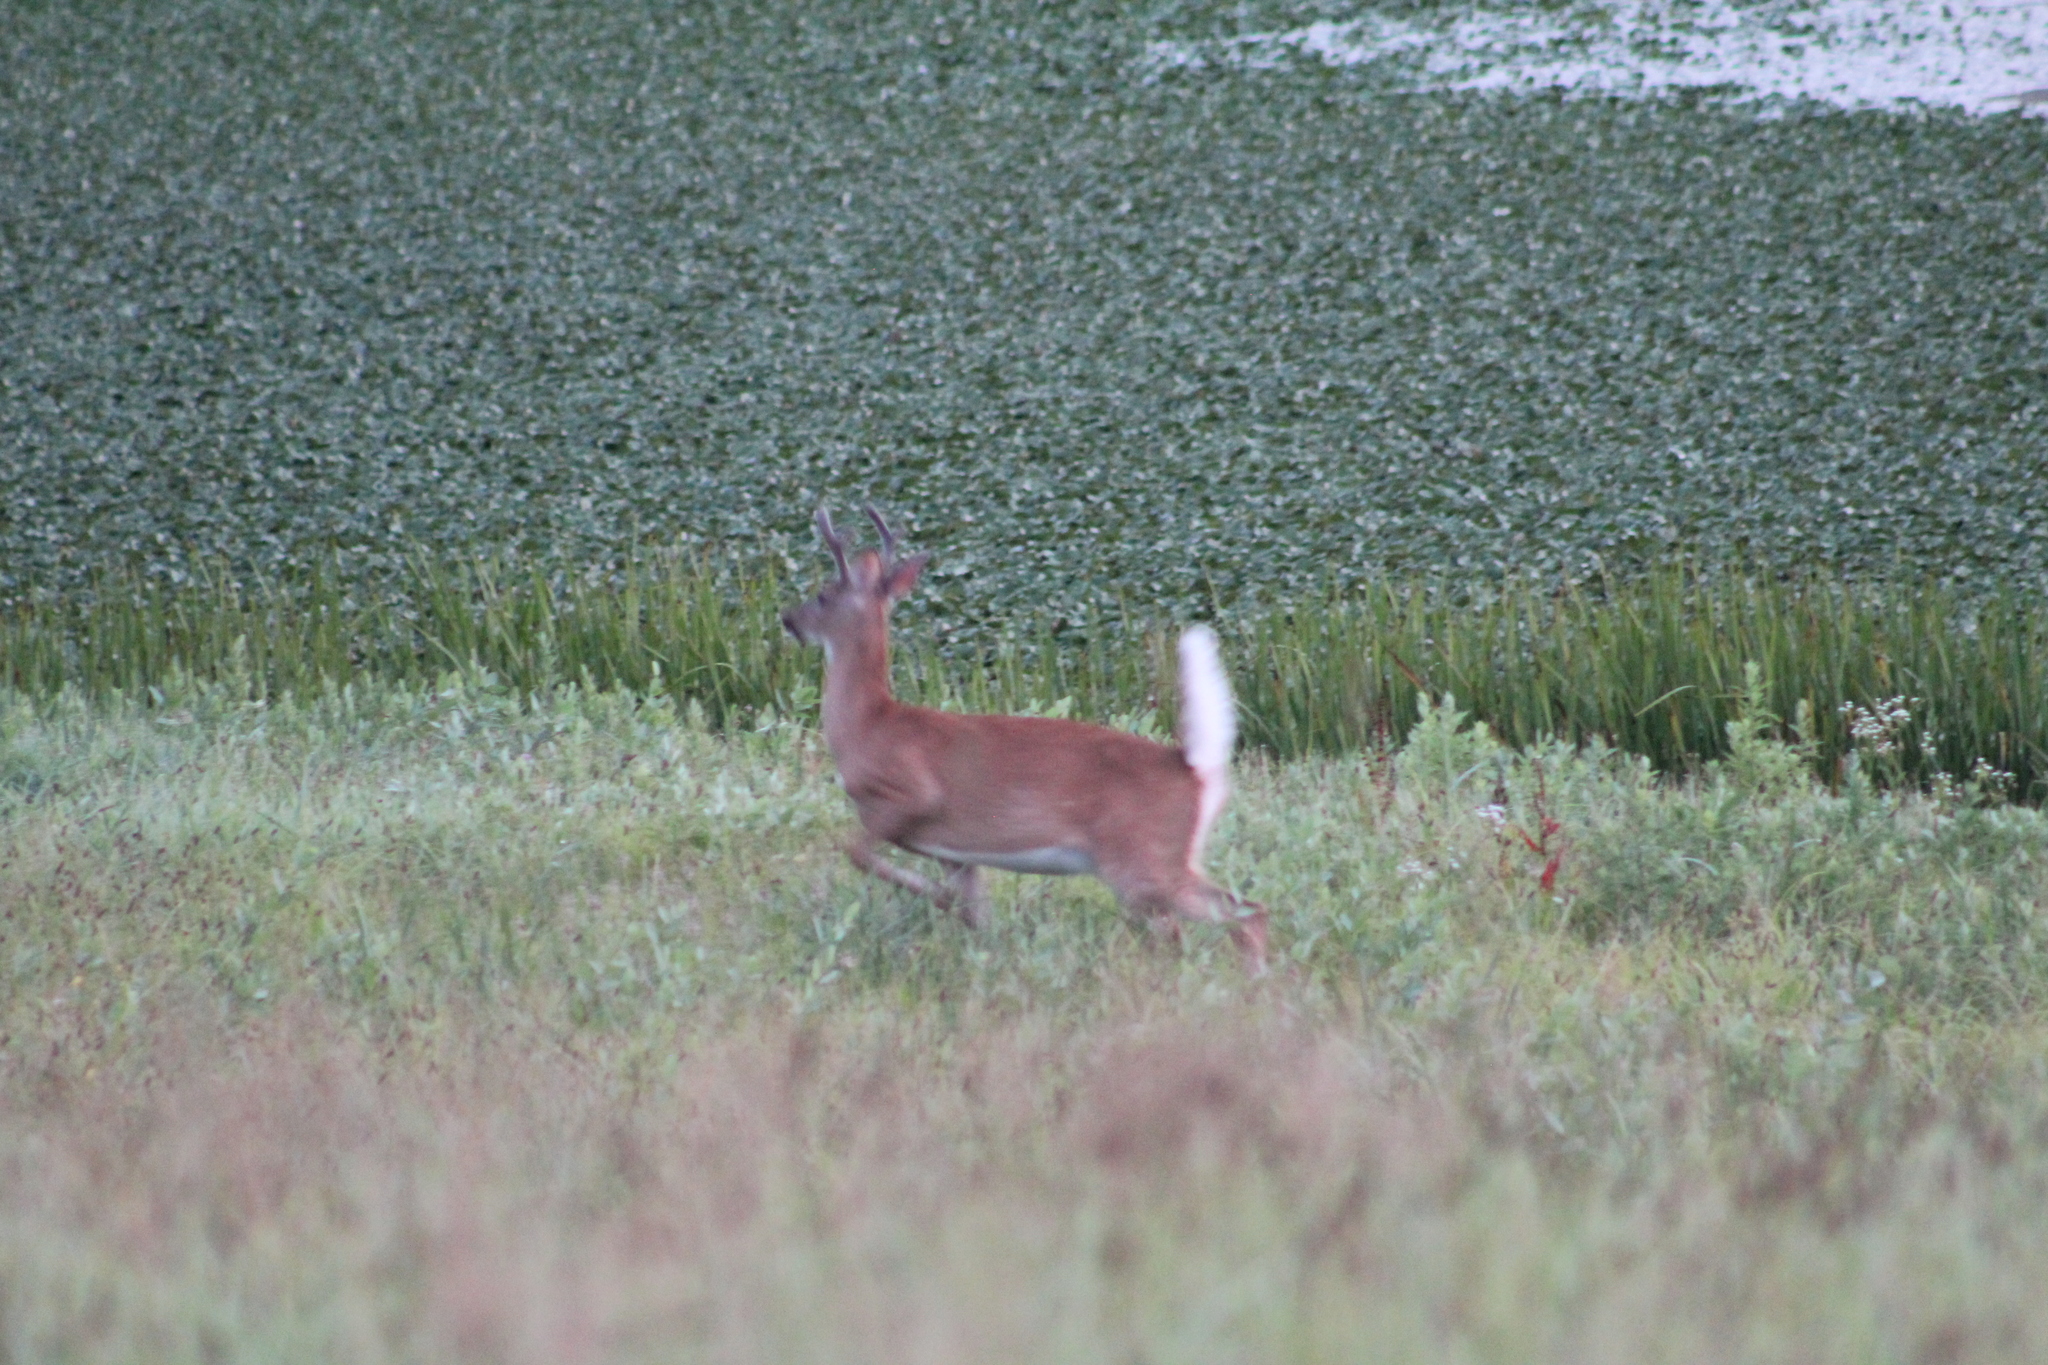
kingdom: Animalia
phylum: Chordata
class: Mammalia
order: Artiodactyla
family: Cervidae
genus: Odocoileus
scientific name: Odocoileus virginianus
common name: White-tailed deer
